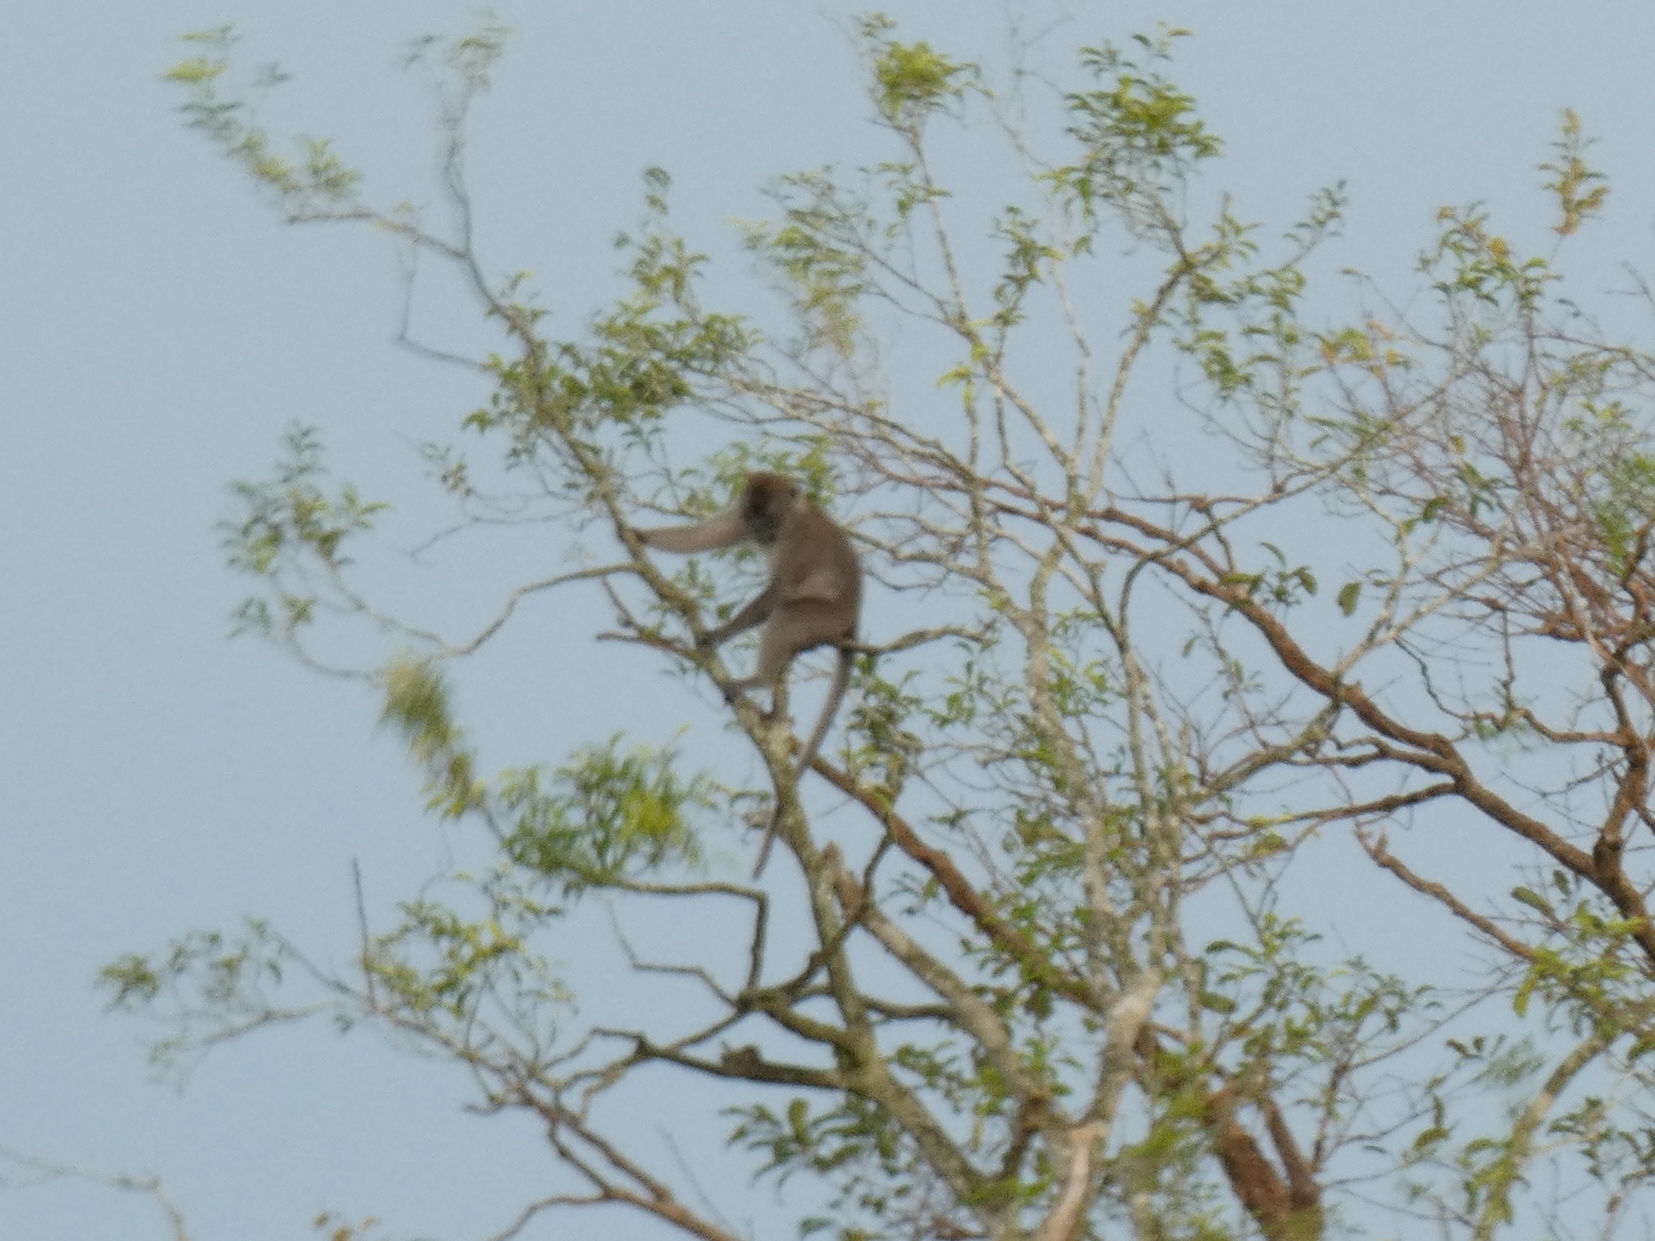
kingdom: Animalia
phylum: Chordata
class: Mammalia
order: Primates
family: Cercopithecidae
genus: Macaca
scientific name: Macaca fascicularis
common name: Crab-eating macaque
